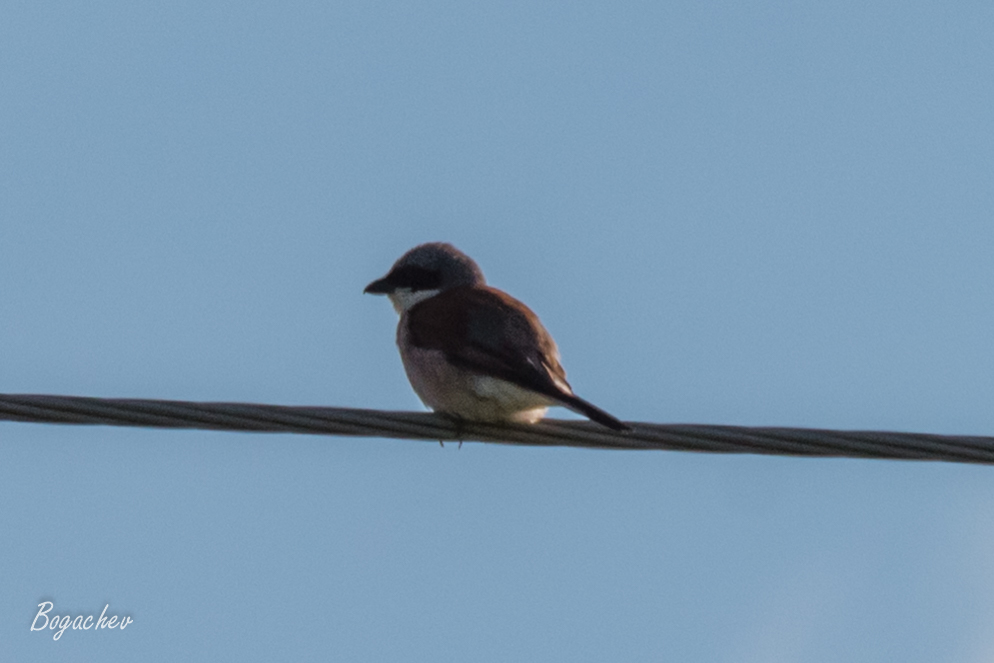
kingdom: Animalia
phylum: Chordata
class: Aves
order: Passeriformes
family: Laniidae
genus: Lanius
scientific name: Lanius collurio
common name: Red-backed shrike
